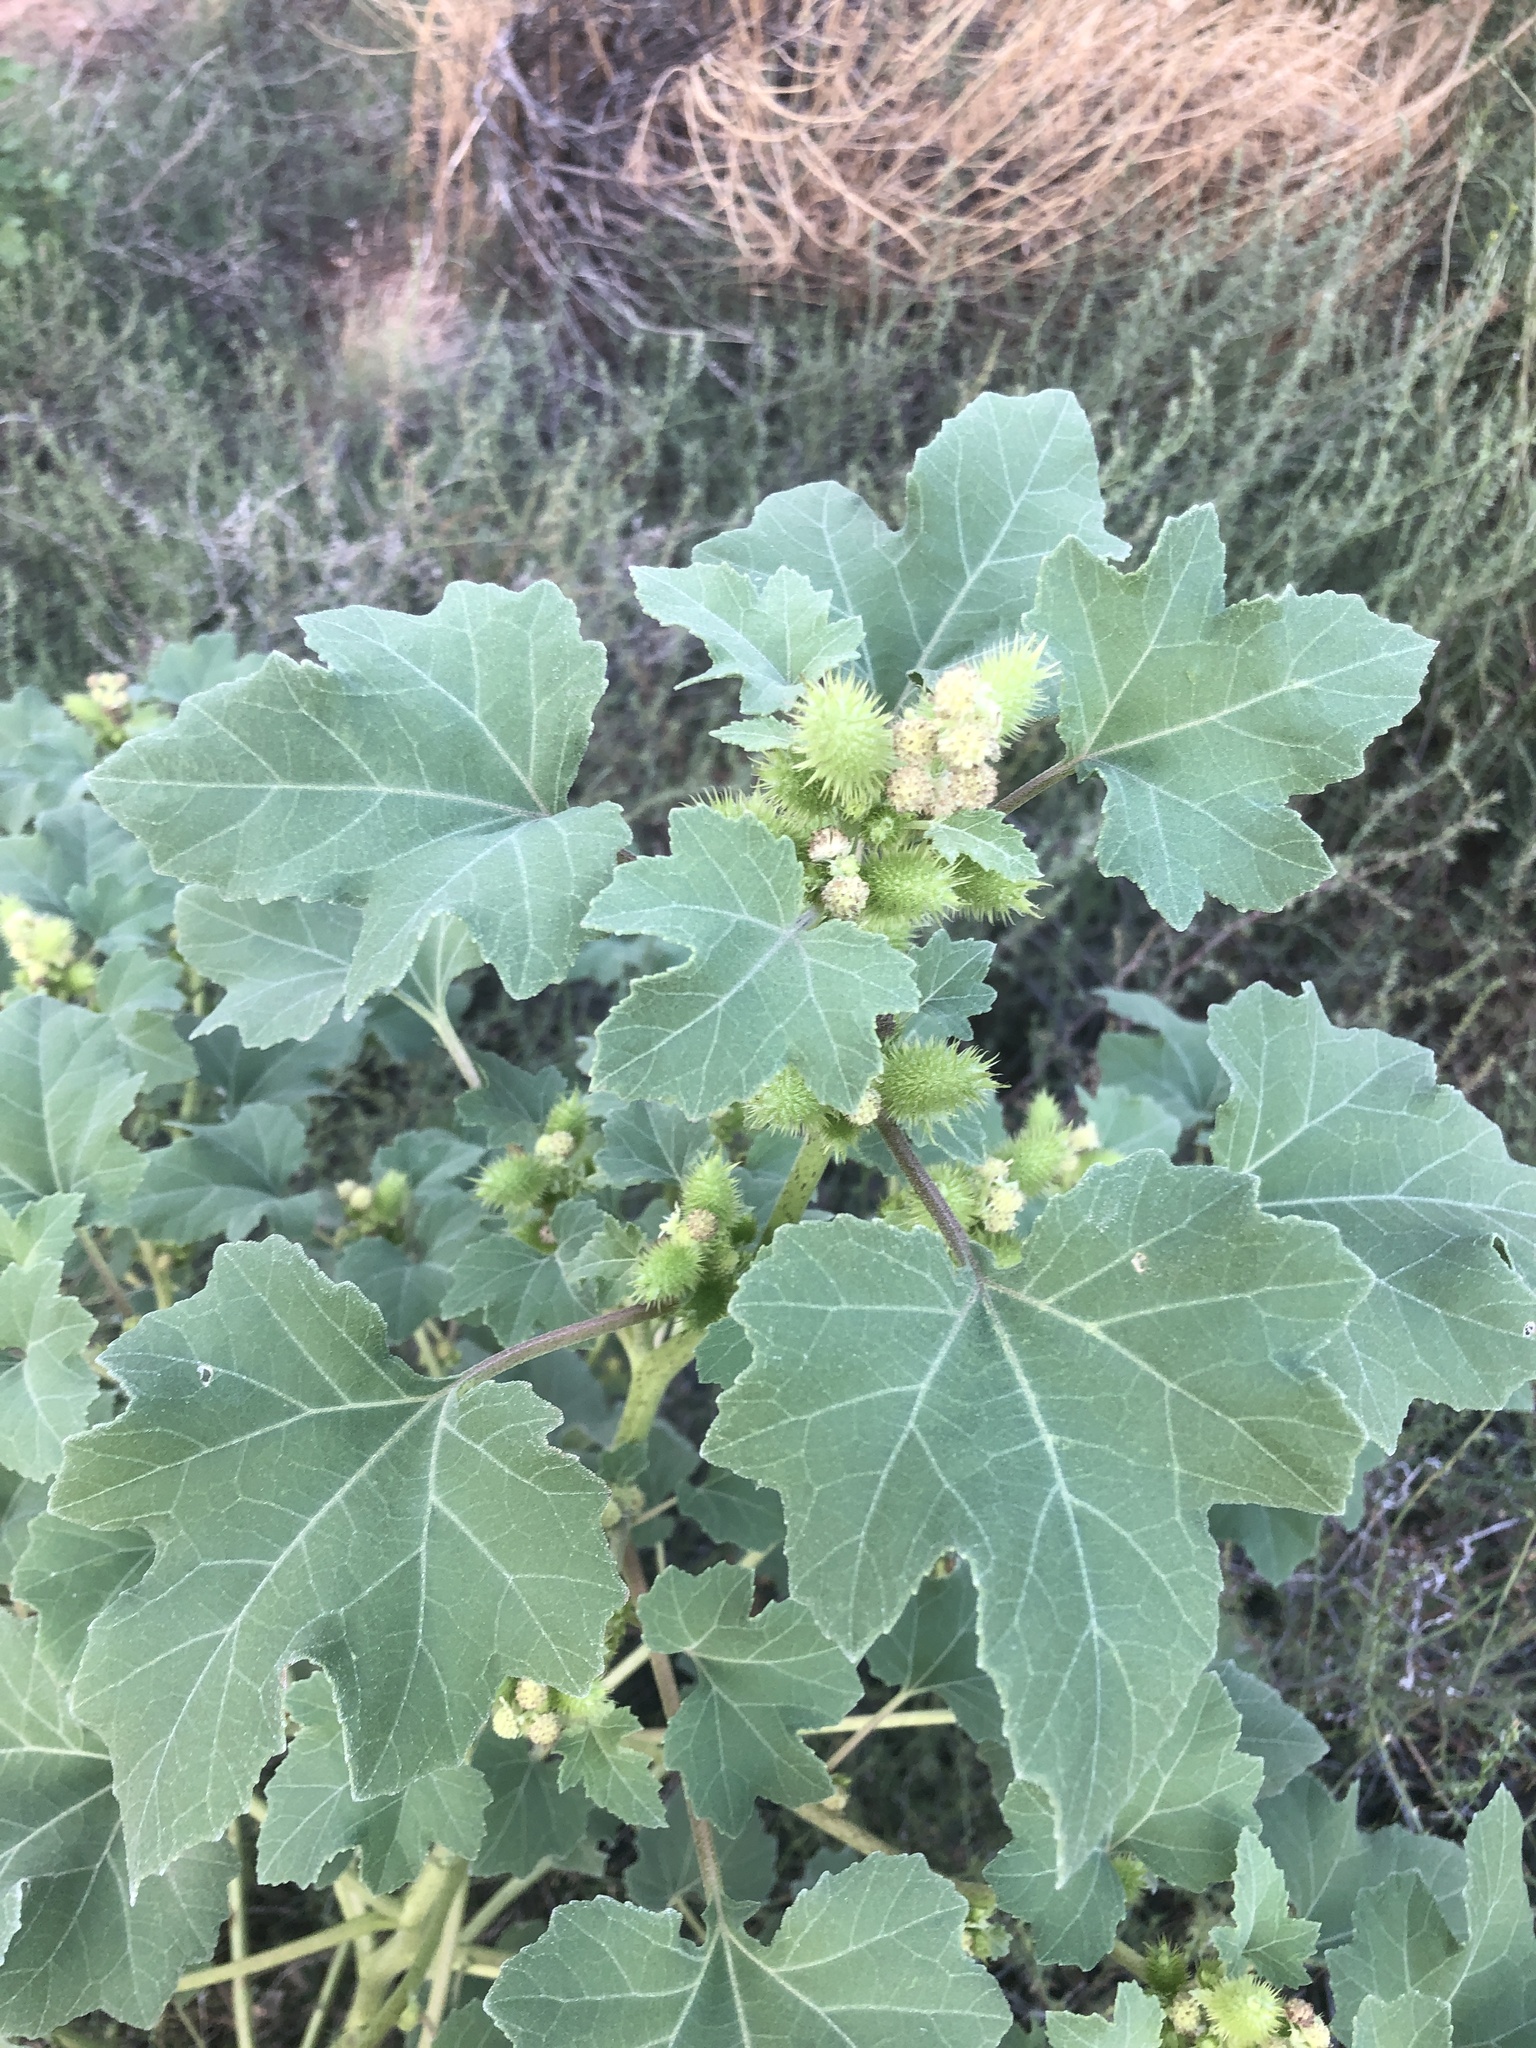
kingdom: Plantae
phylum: Tracheophyta
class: Magnoliopsida
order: Asterales
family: Asteraceae
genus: Xanthium
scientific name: Xanthium strumarium
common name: Rough cocklebur
